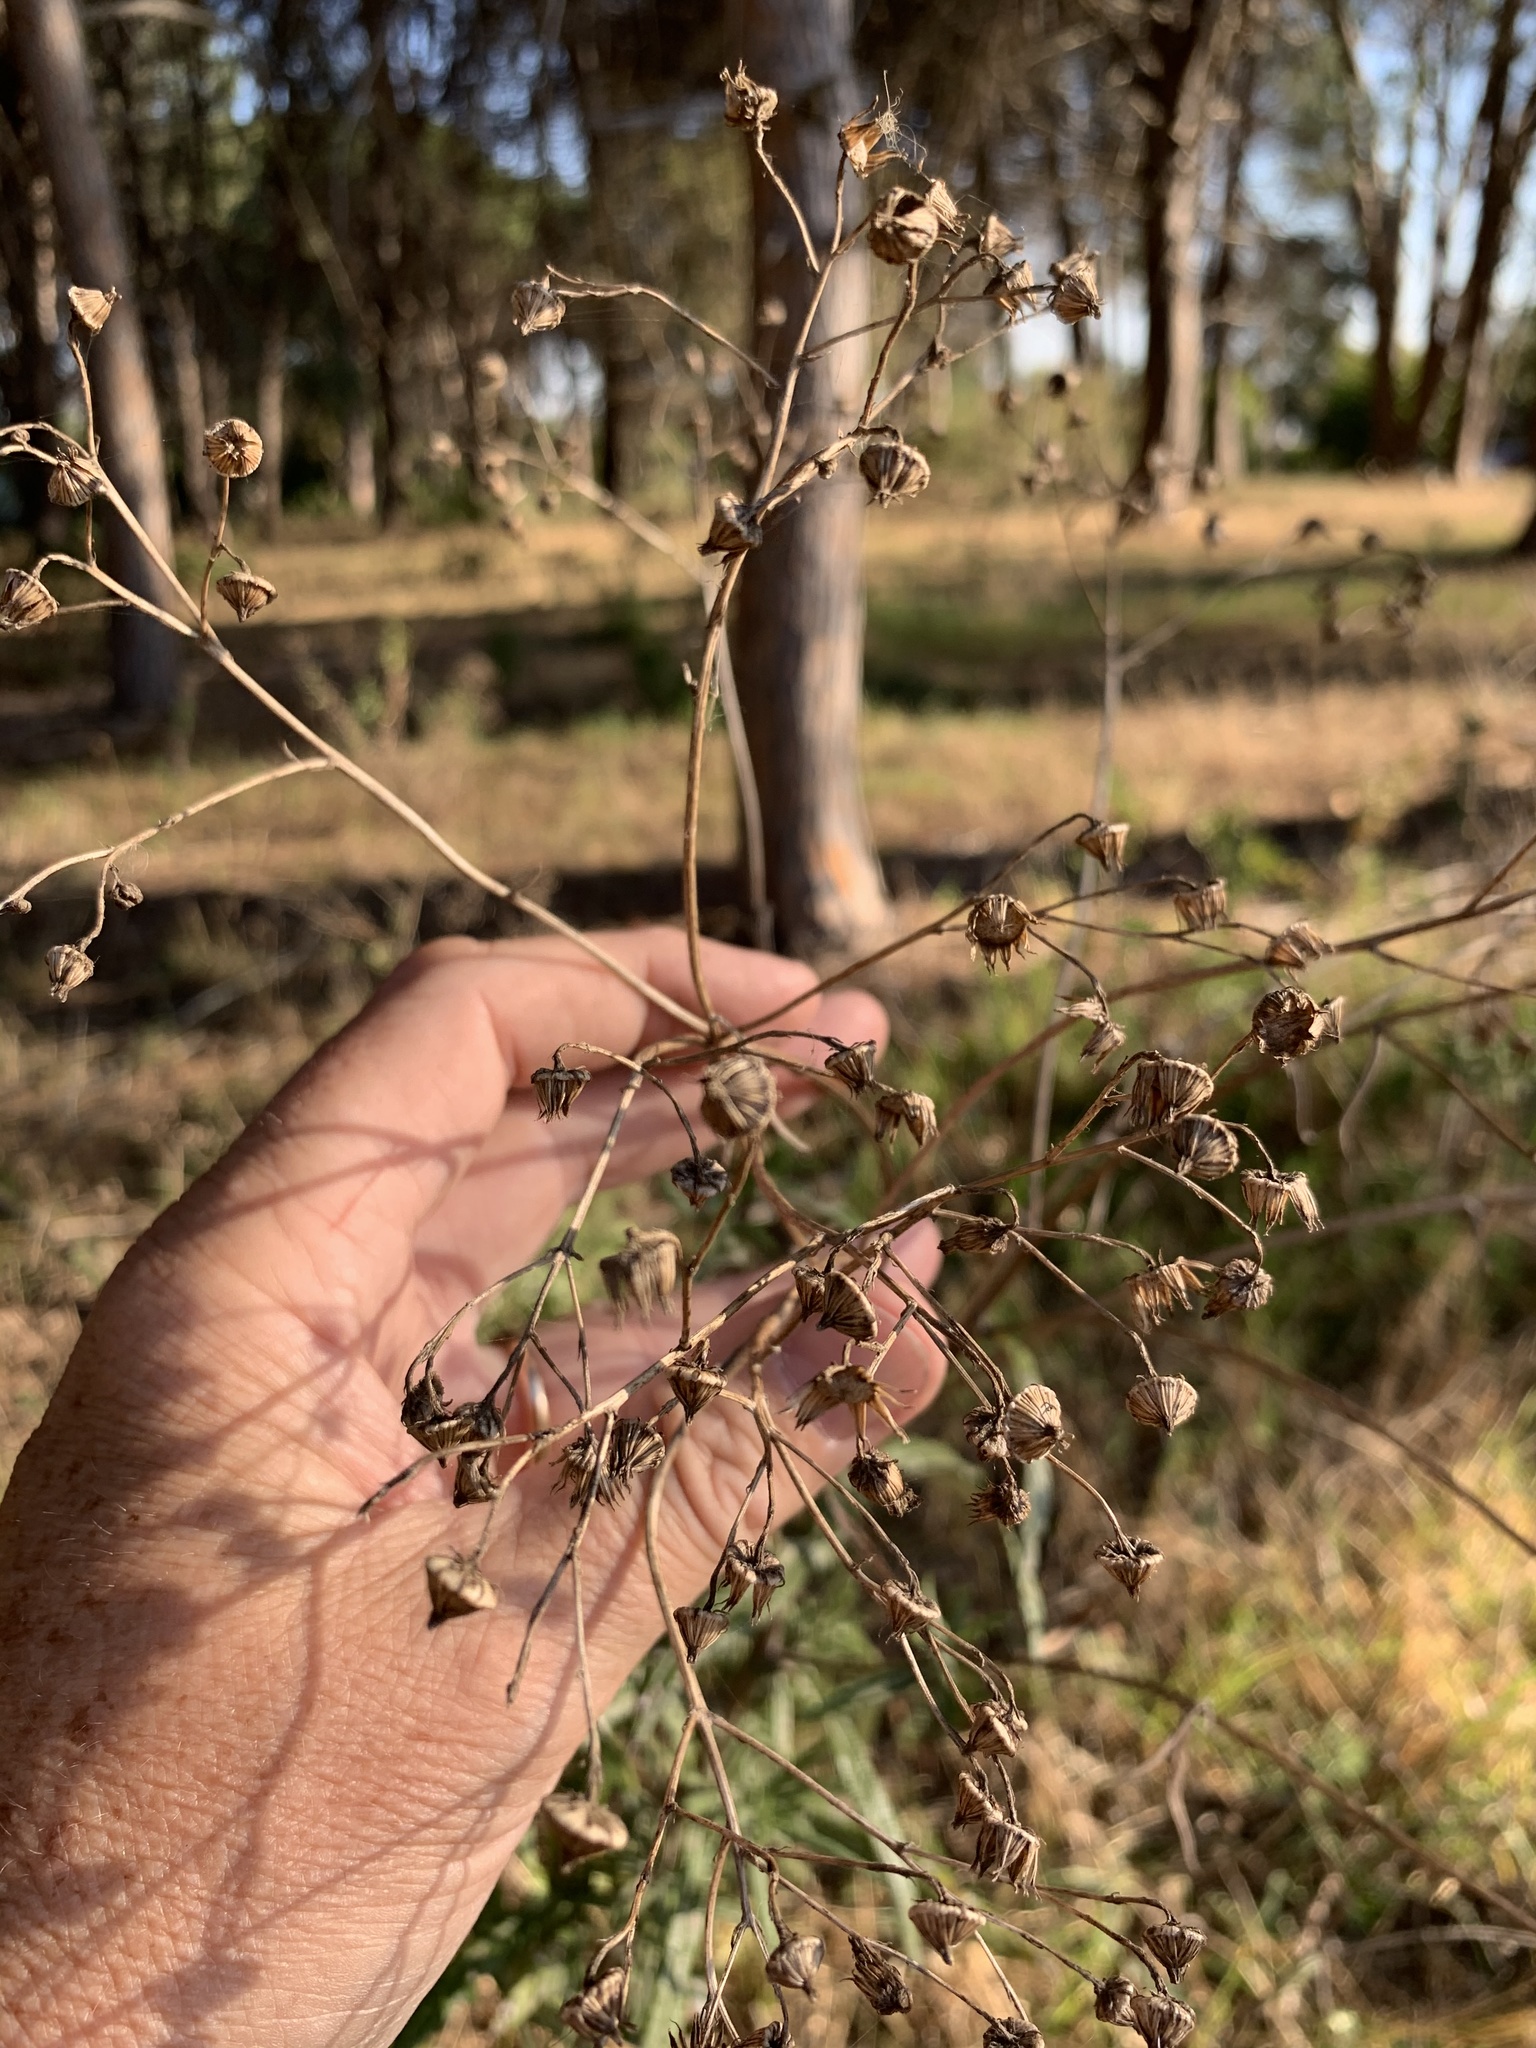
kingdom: Plantae
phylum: Tracheophyta
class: Magnoliopsida
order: Asterales
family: Asteraceae
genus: Senecio
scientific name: Senecio pterophorus
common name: Shoddy ragwort
